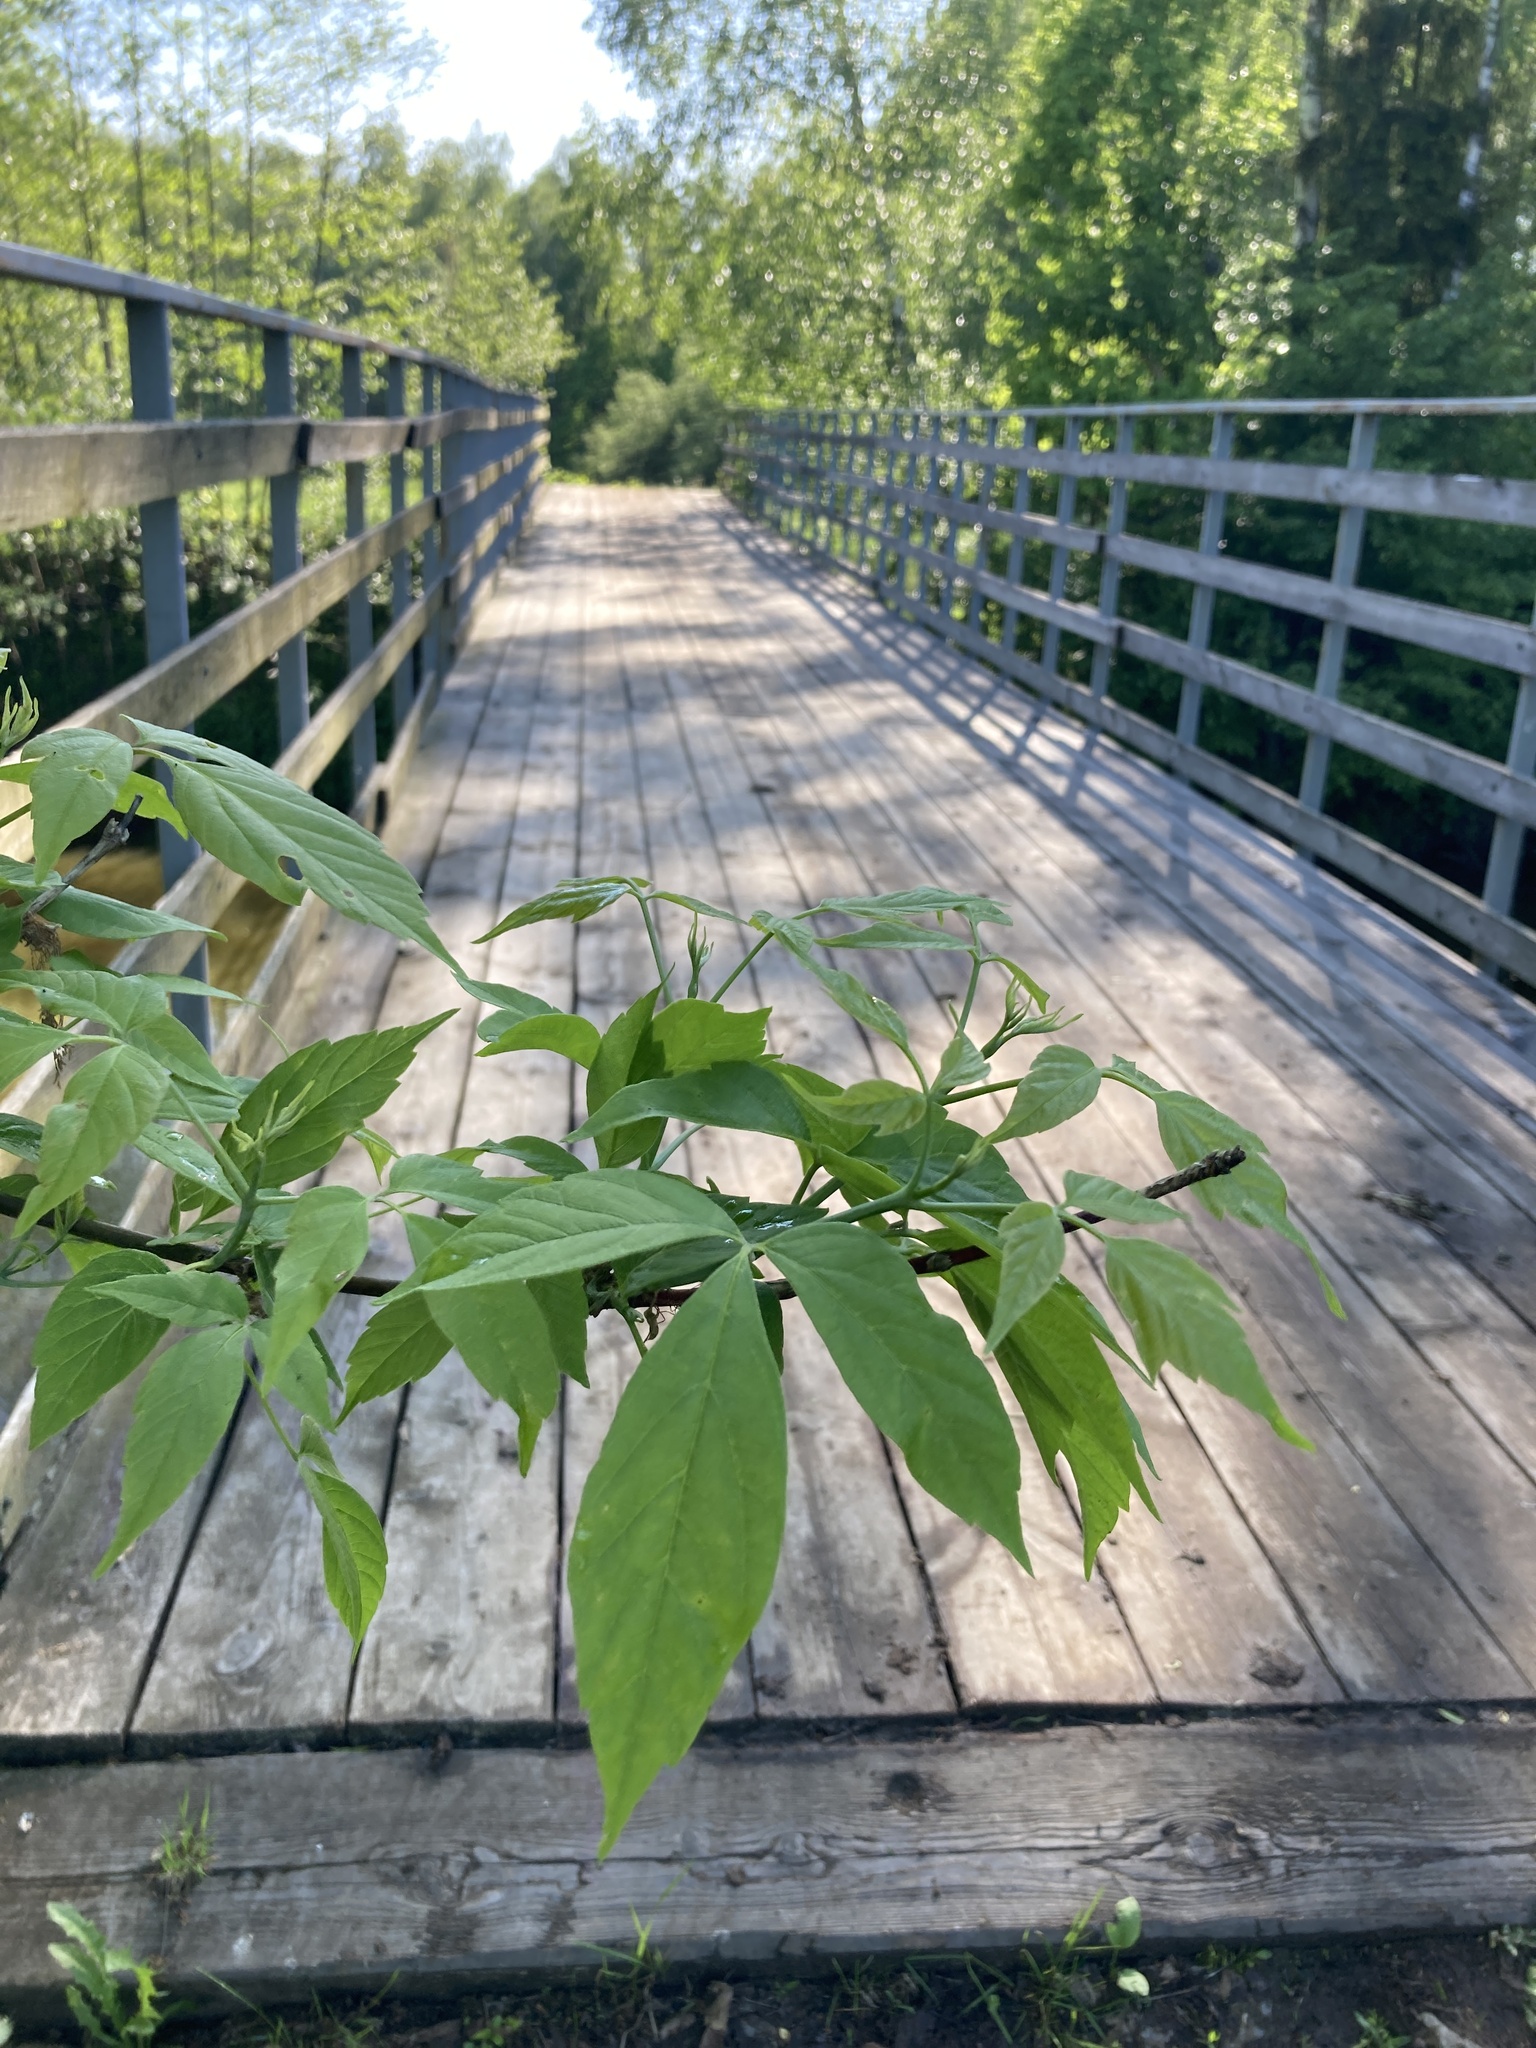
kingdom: Plantae
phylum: Tracheophyta
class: Magnoliopsida
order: Sapindales
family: Sapindaceae
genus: Acer
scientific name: Acer negundo
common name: Ashleaf maple
